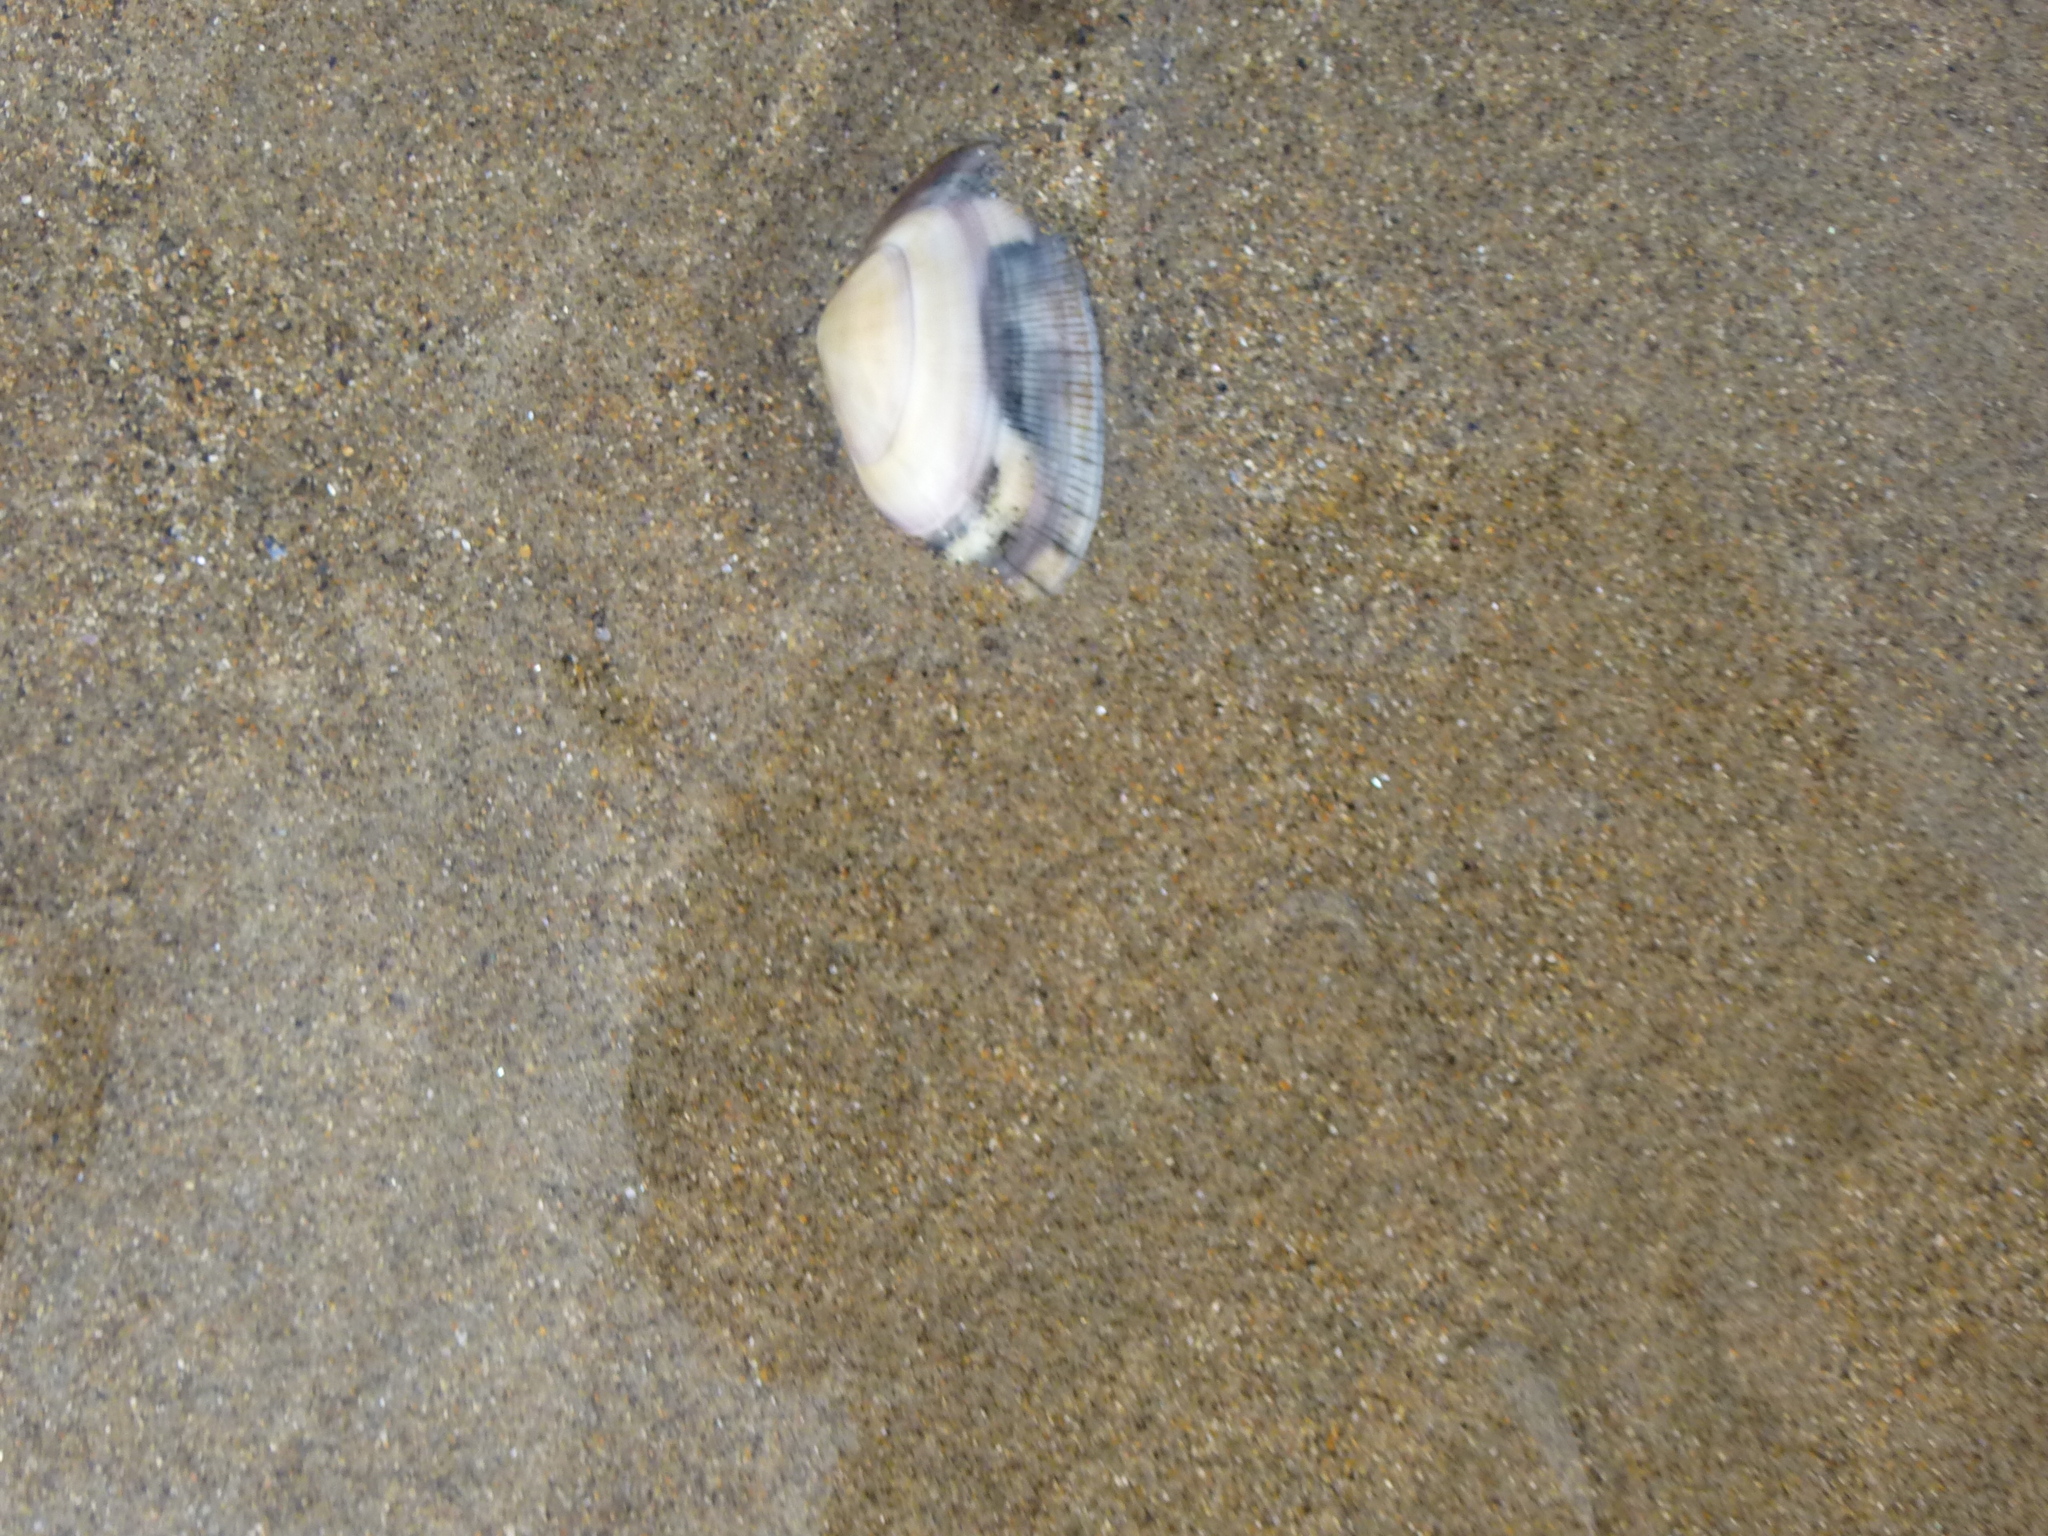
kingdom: Animalia
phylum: Mollusca
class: Bivalvia
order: Cardiida
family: Donacidae
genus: Donax
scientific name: Donax vittatus
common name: Banded wedge-shell
